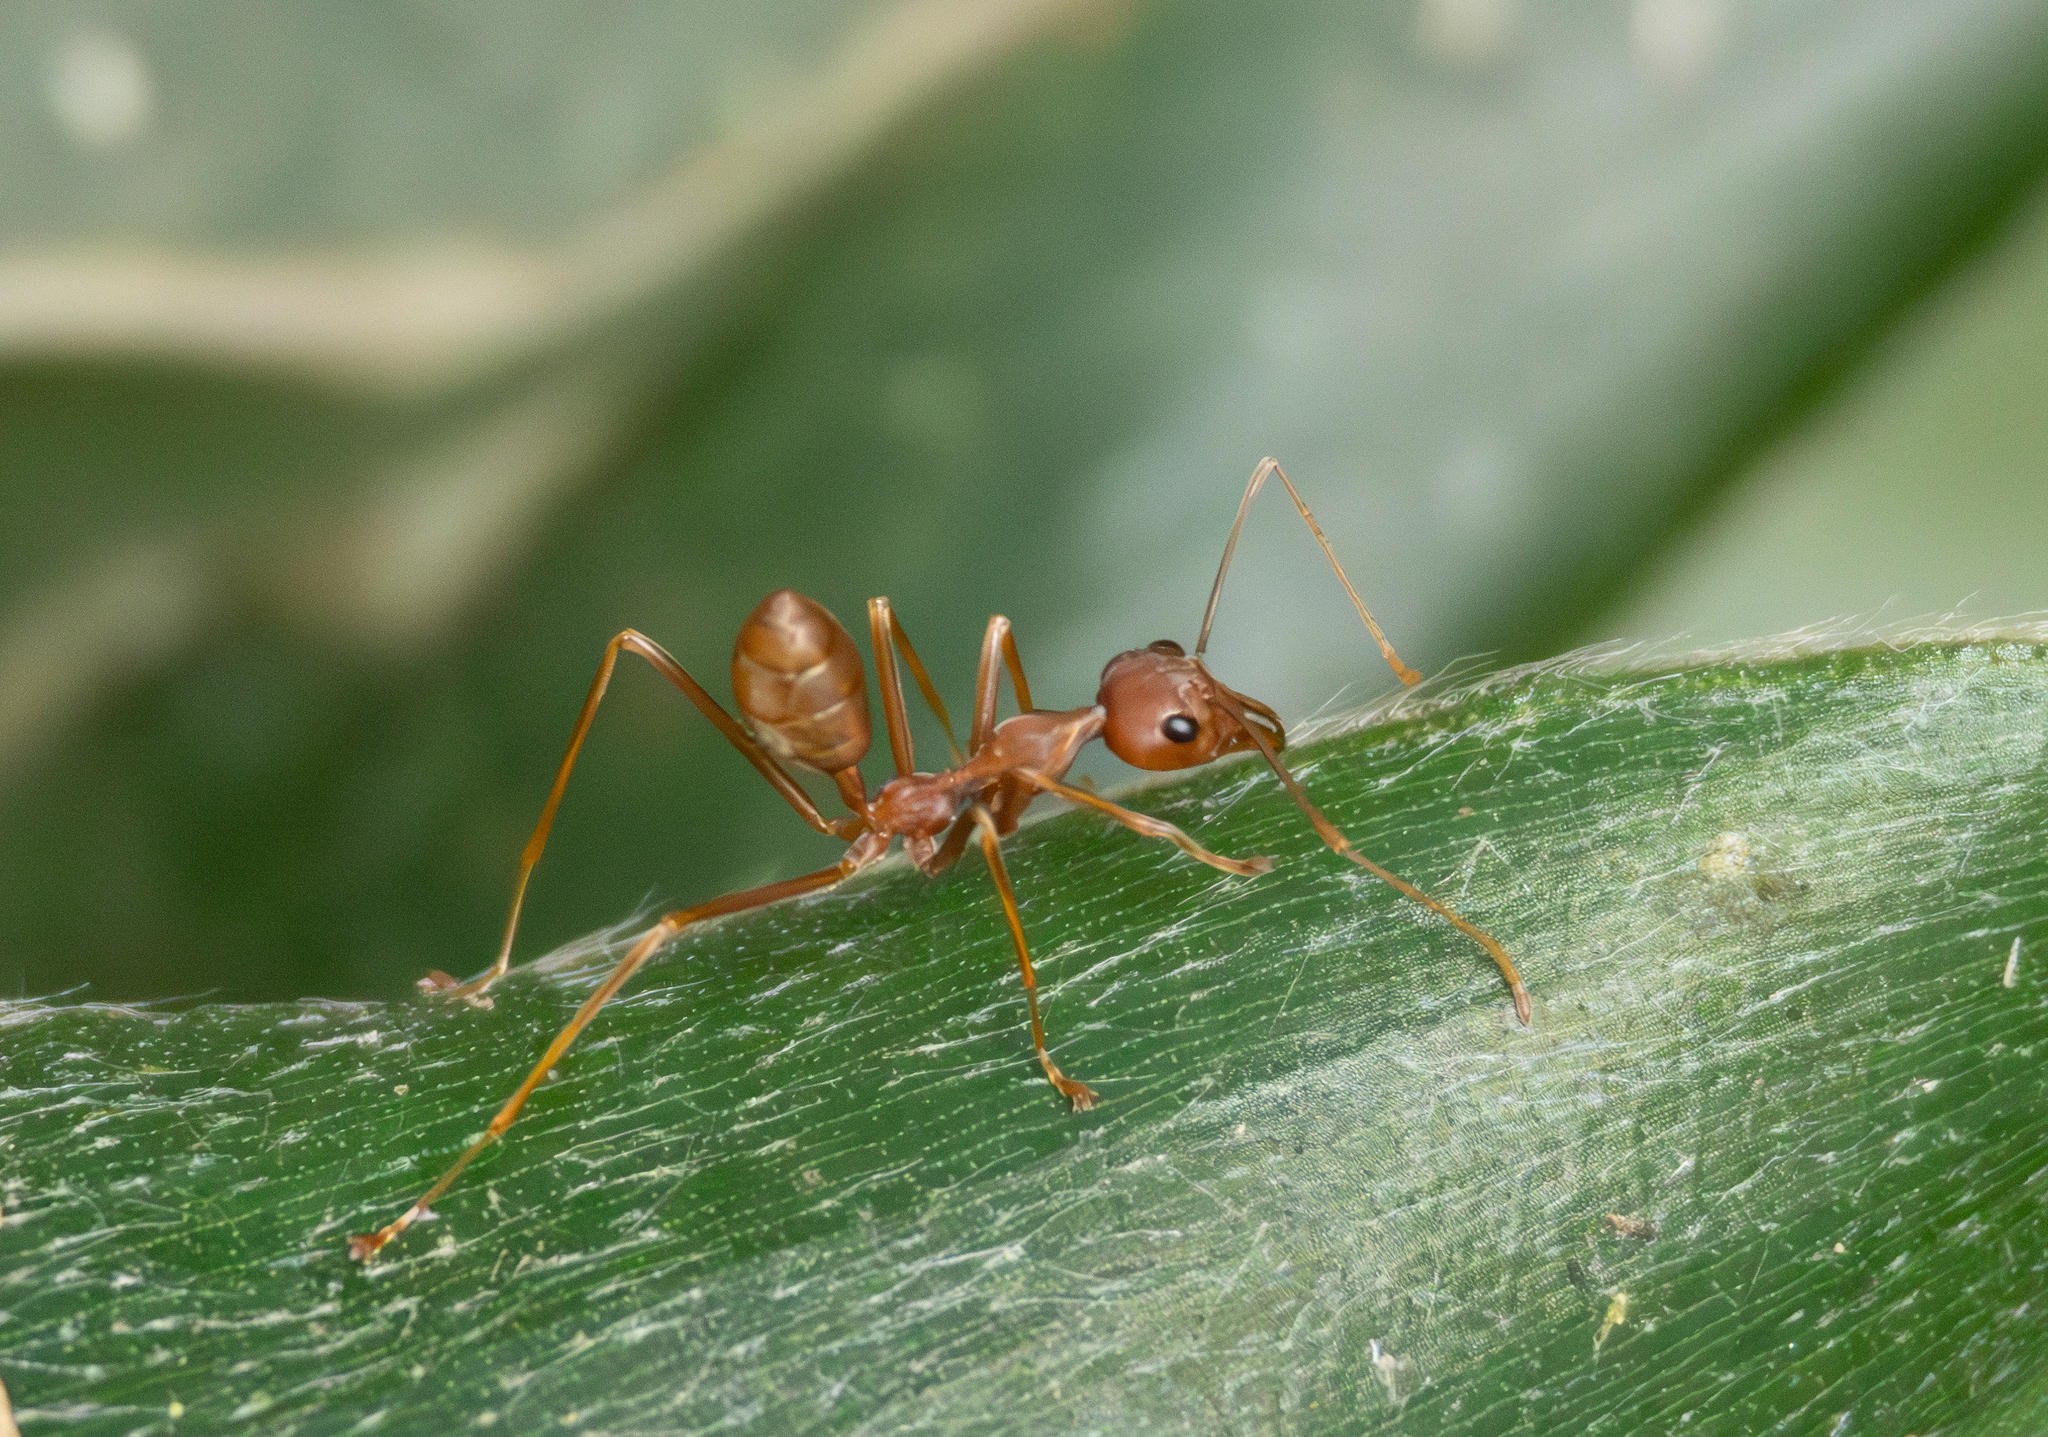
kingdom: Animalia
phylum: Arthropoda
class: Insecta
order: Hymenoptera
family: Formicidae
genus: Oecophylla
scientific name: Oecophylla smaragdina
